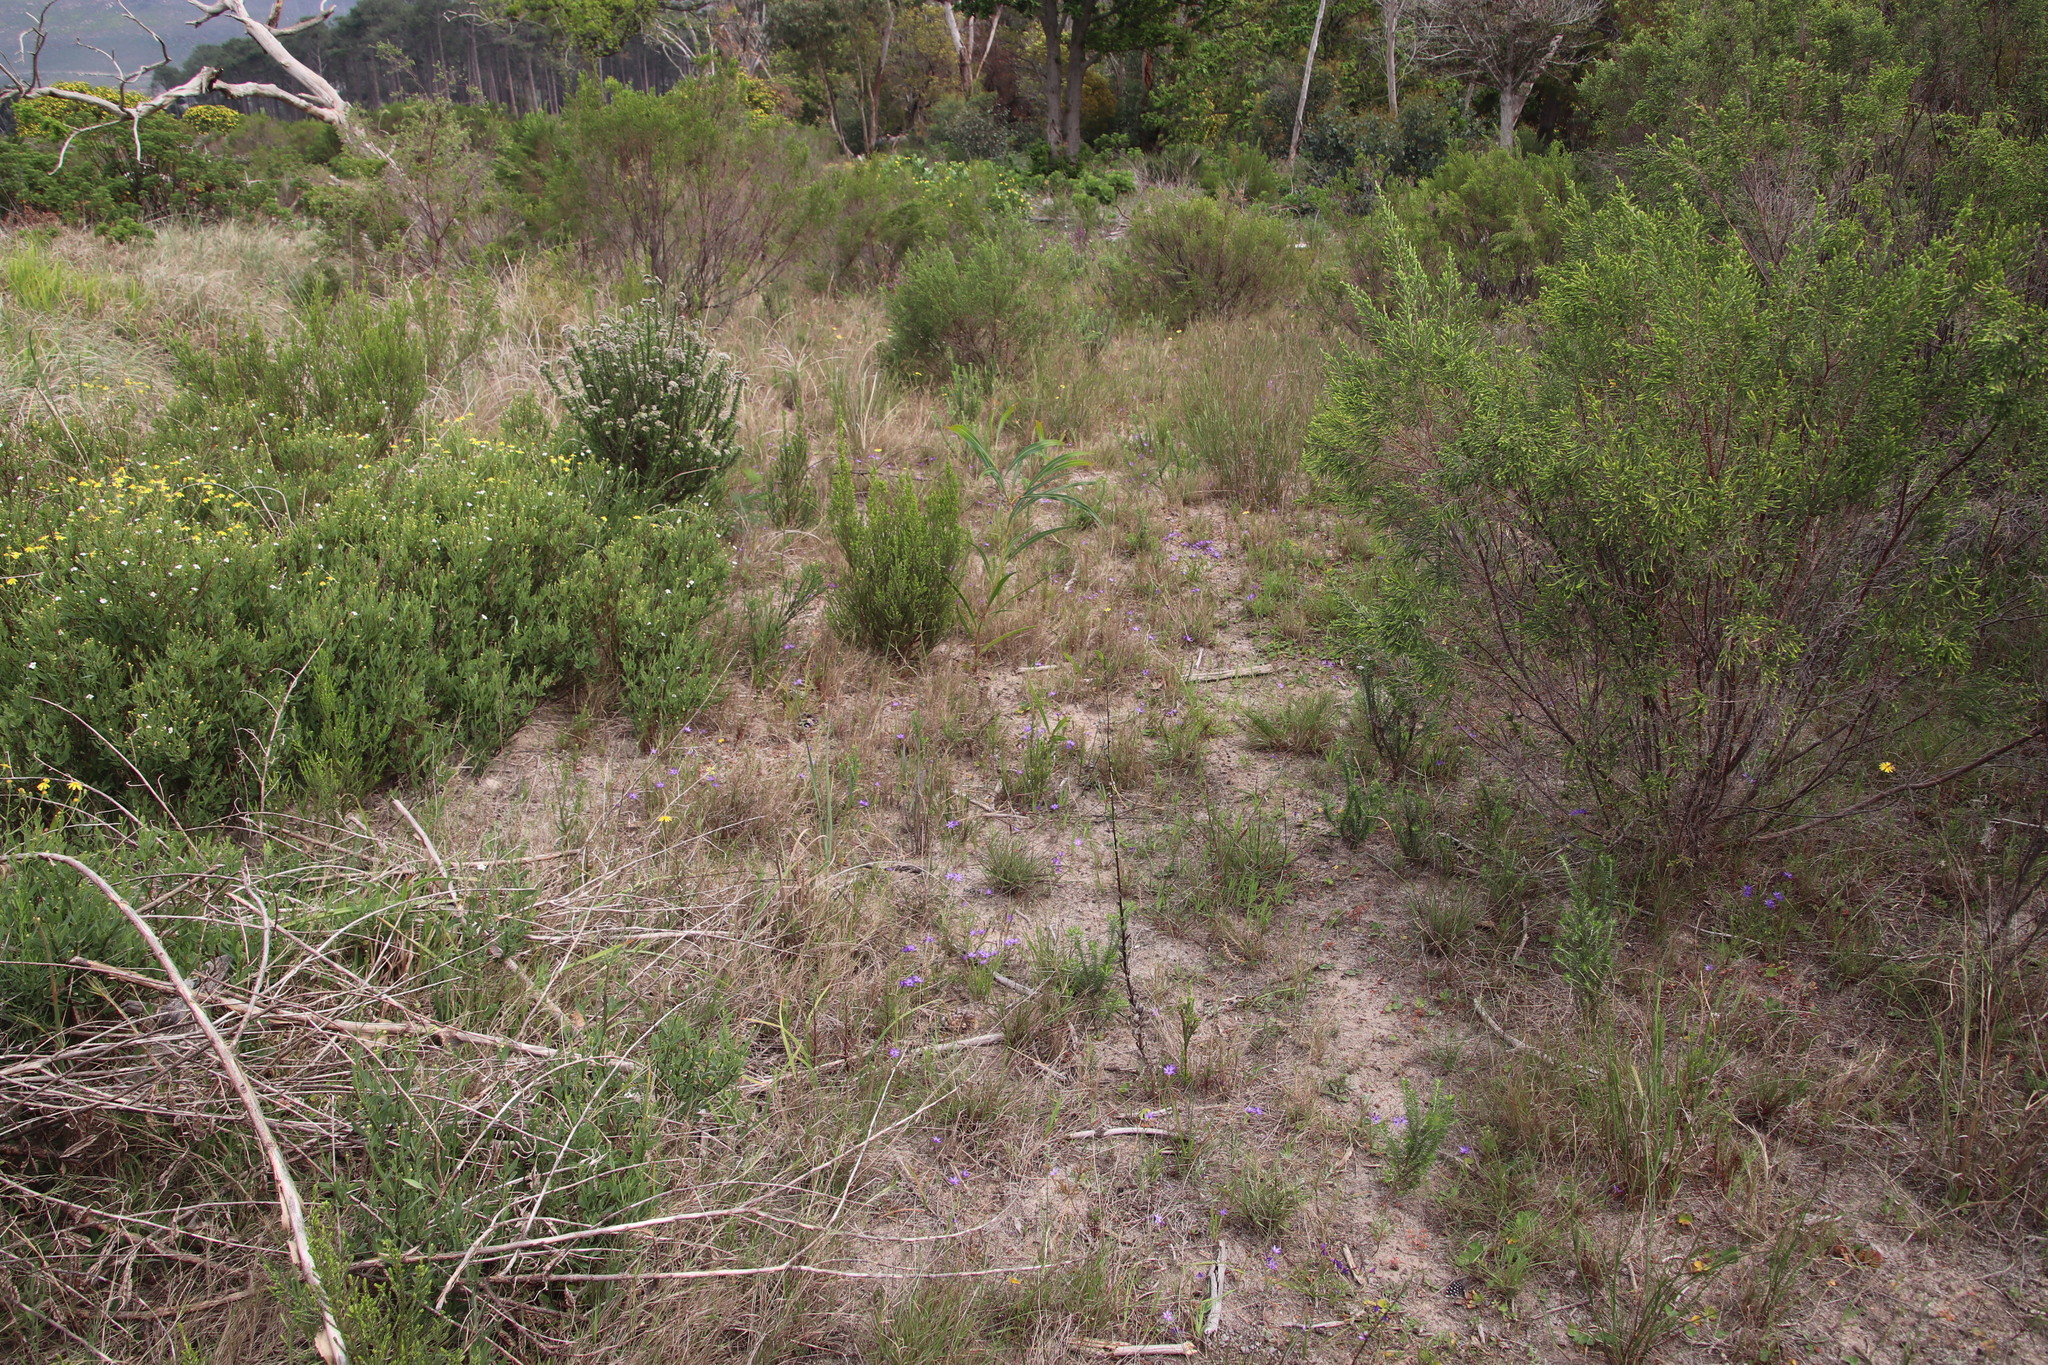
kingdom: Plantae
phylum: Tracheophyta
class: Magnoliopsida
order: Fabales
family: Fabaceae
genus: Acacia
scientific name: Acacia saligna
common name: Orange wattle
